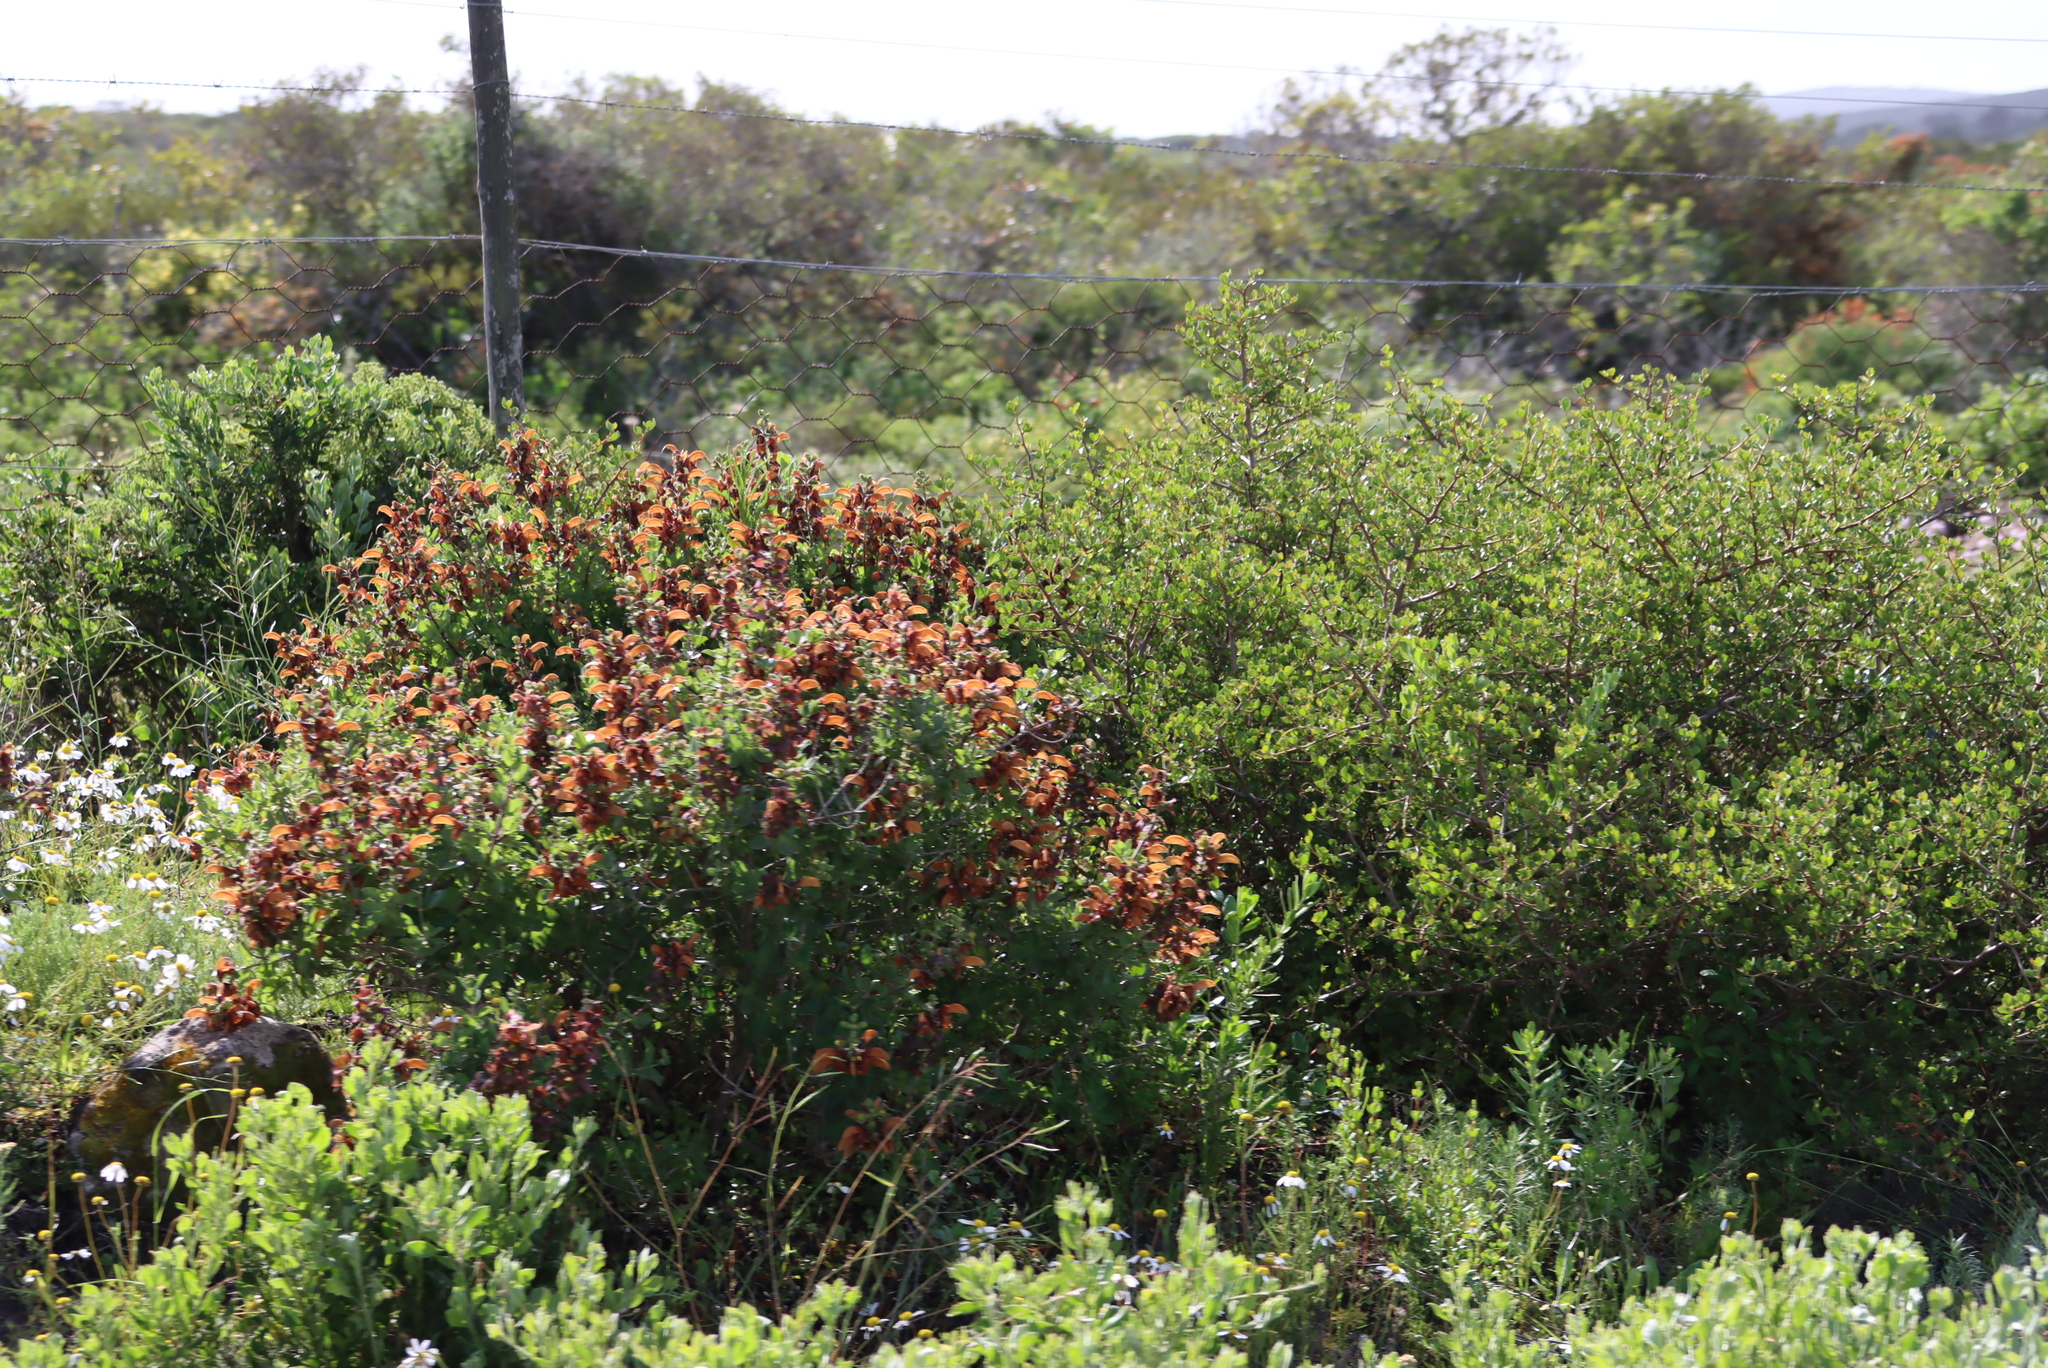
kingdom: Plantae
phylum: Tracheophyta
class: Magnoliopsida
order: Lamiales
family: Lamiaceae
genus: Salvia
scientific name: Salvia aurea
